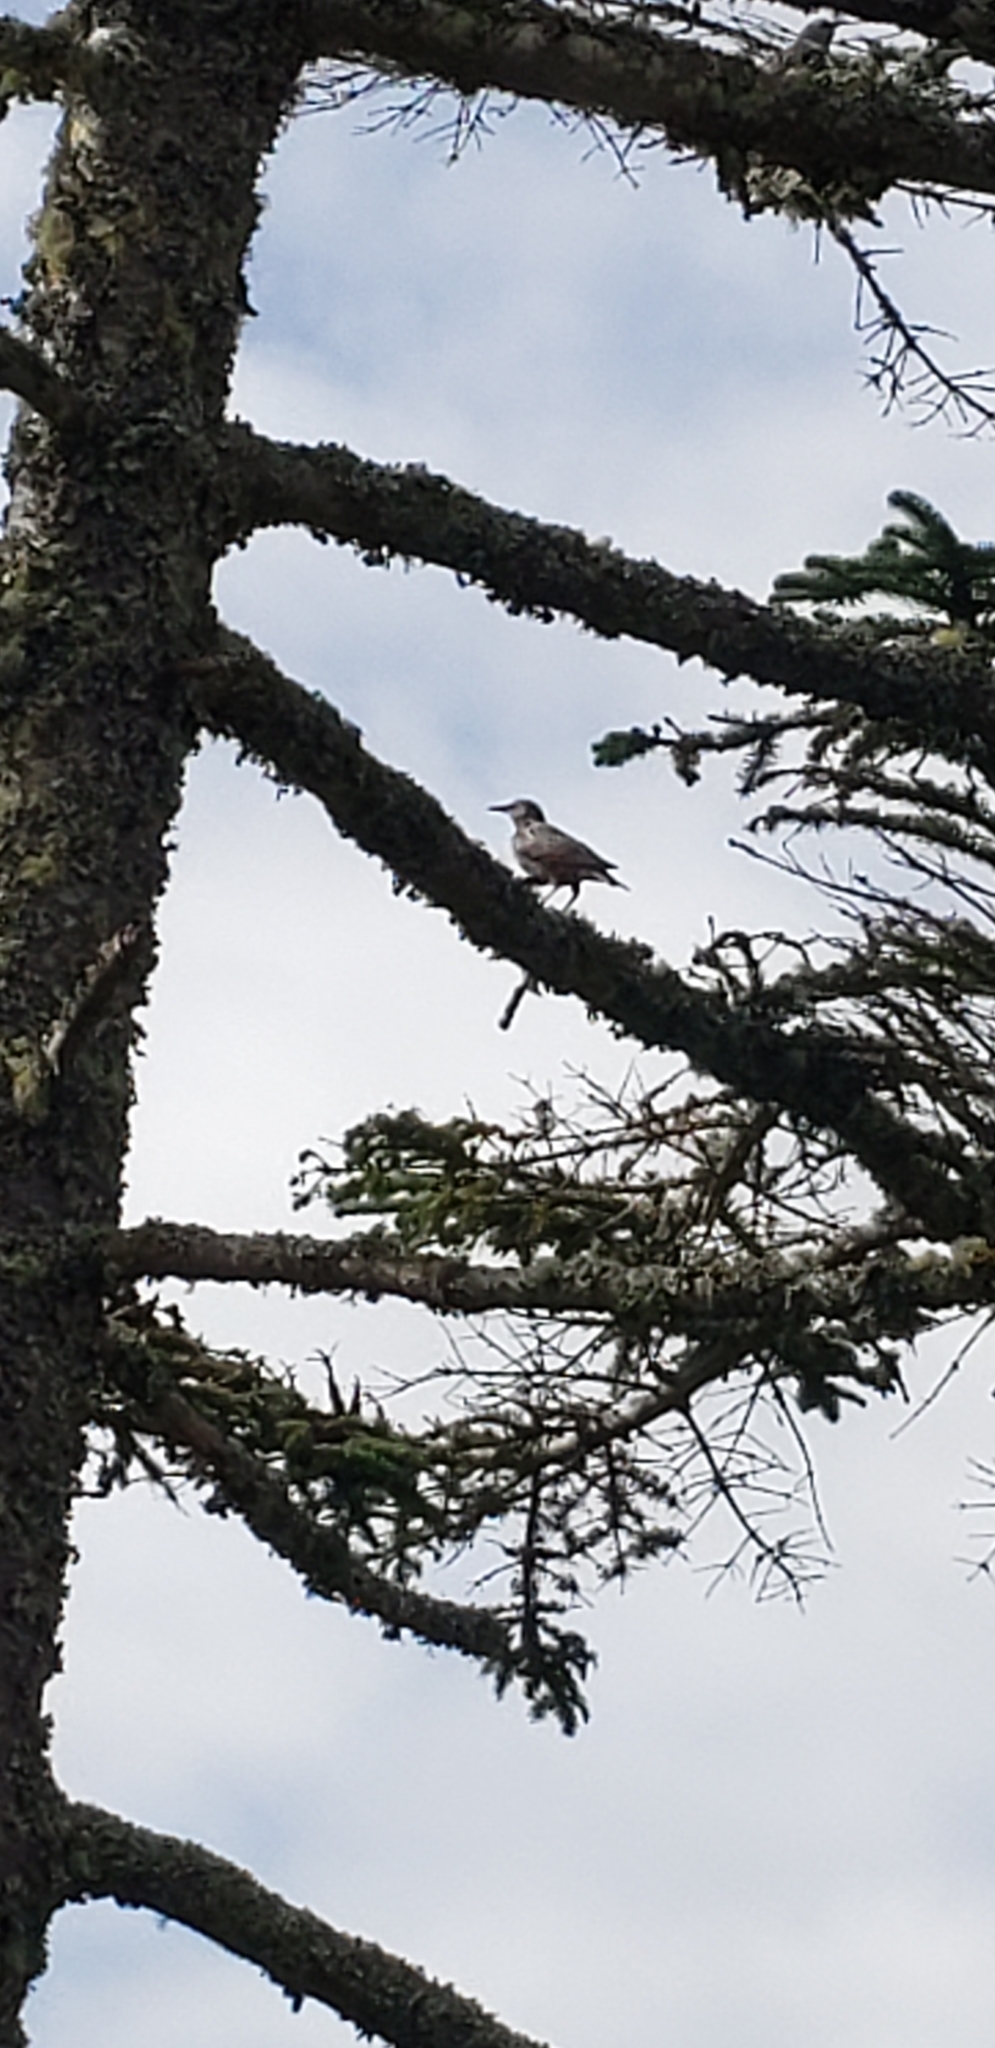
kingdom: Animalia
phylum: Chordata
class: Aves
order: Passeriformes
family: Sturnidae
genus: Sturnus
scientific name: Sturnus vulgaris
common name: Common starling
